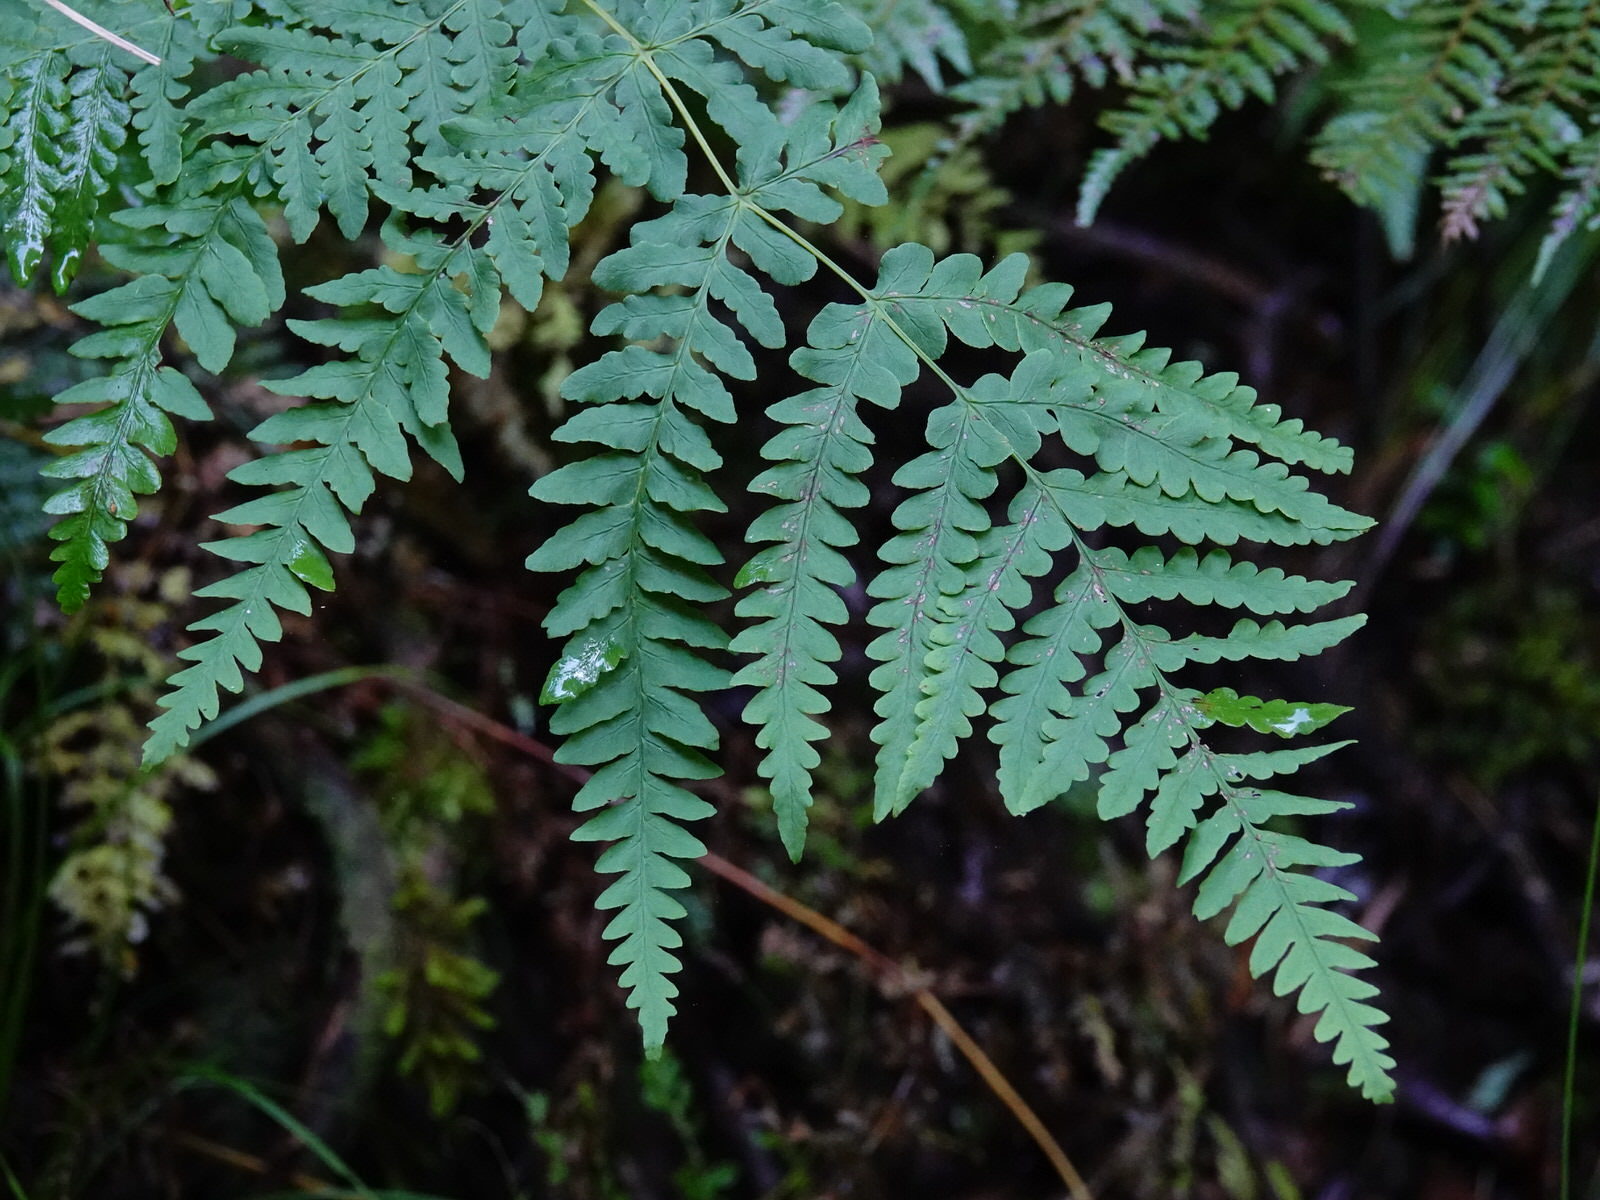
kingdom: Plantae
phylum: Tracheophyta
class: Polypodiopsida
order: Polypodiales
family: Dennstaedtiaceae
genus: Histiopteris
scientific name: Histiopteris incisa
